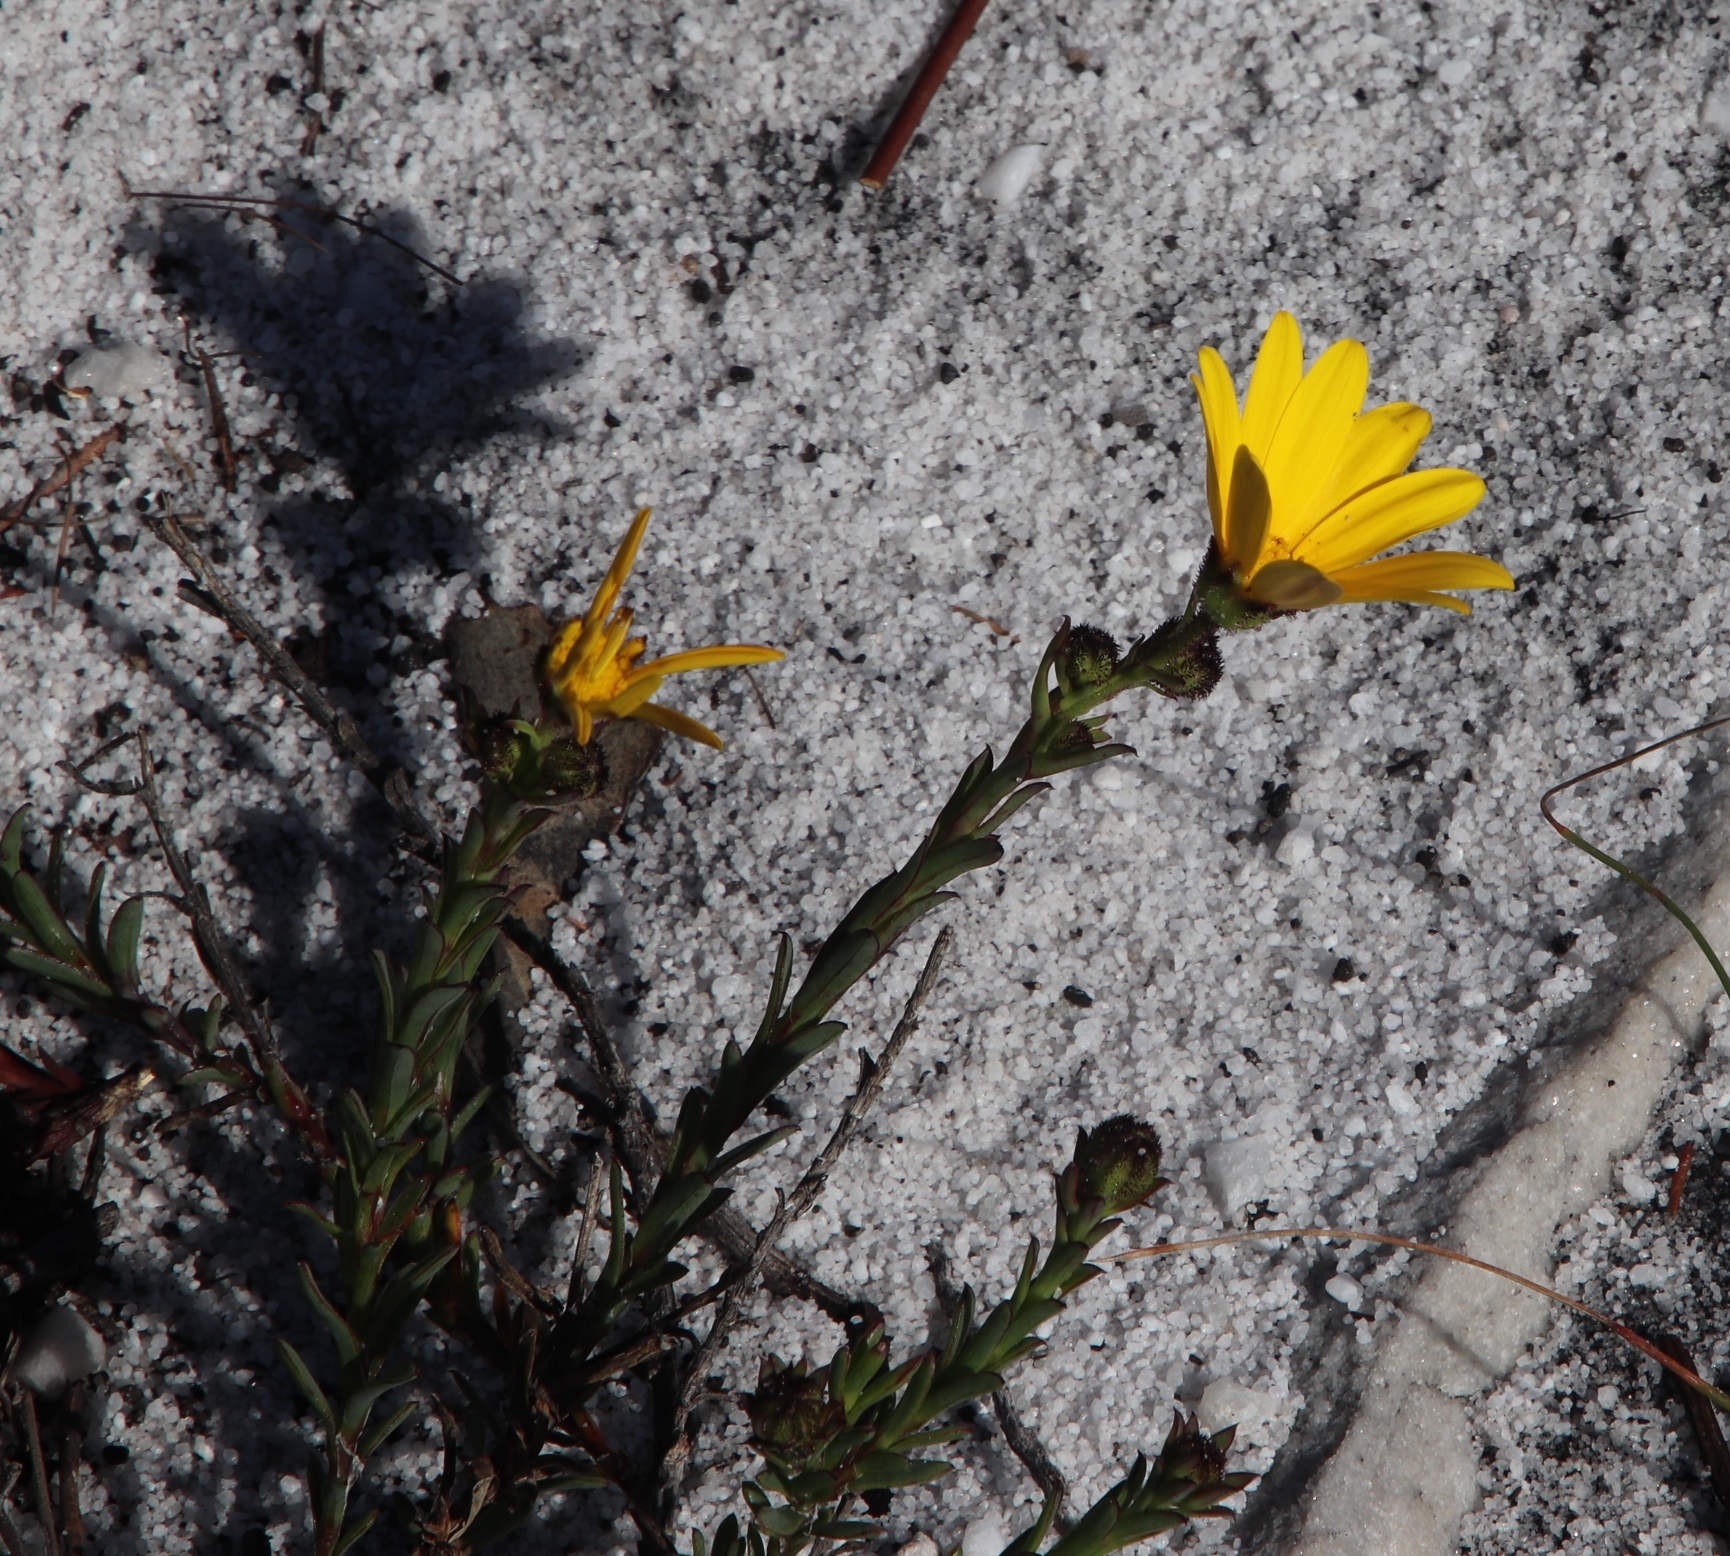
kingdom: Plantae
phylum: Tracheophyta
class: Magnoliopsida
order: Asterales
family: Asteraceae
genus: Osteospermum
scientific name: Osteospermum polygaloides
